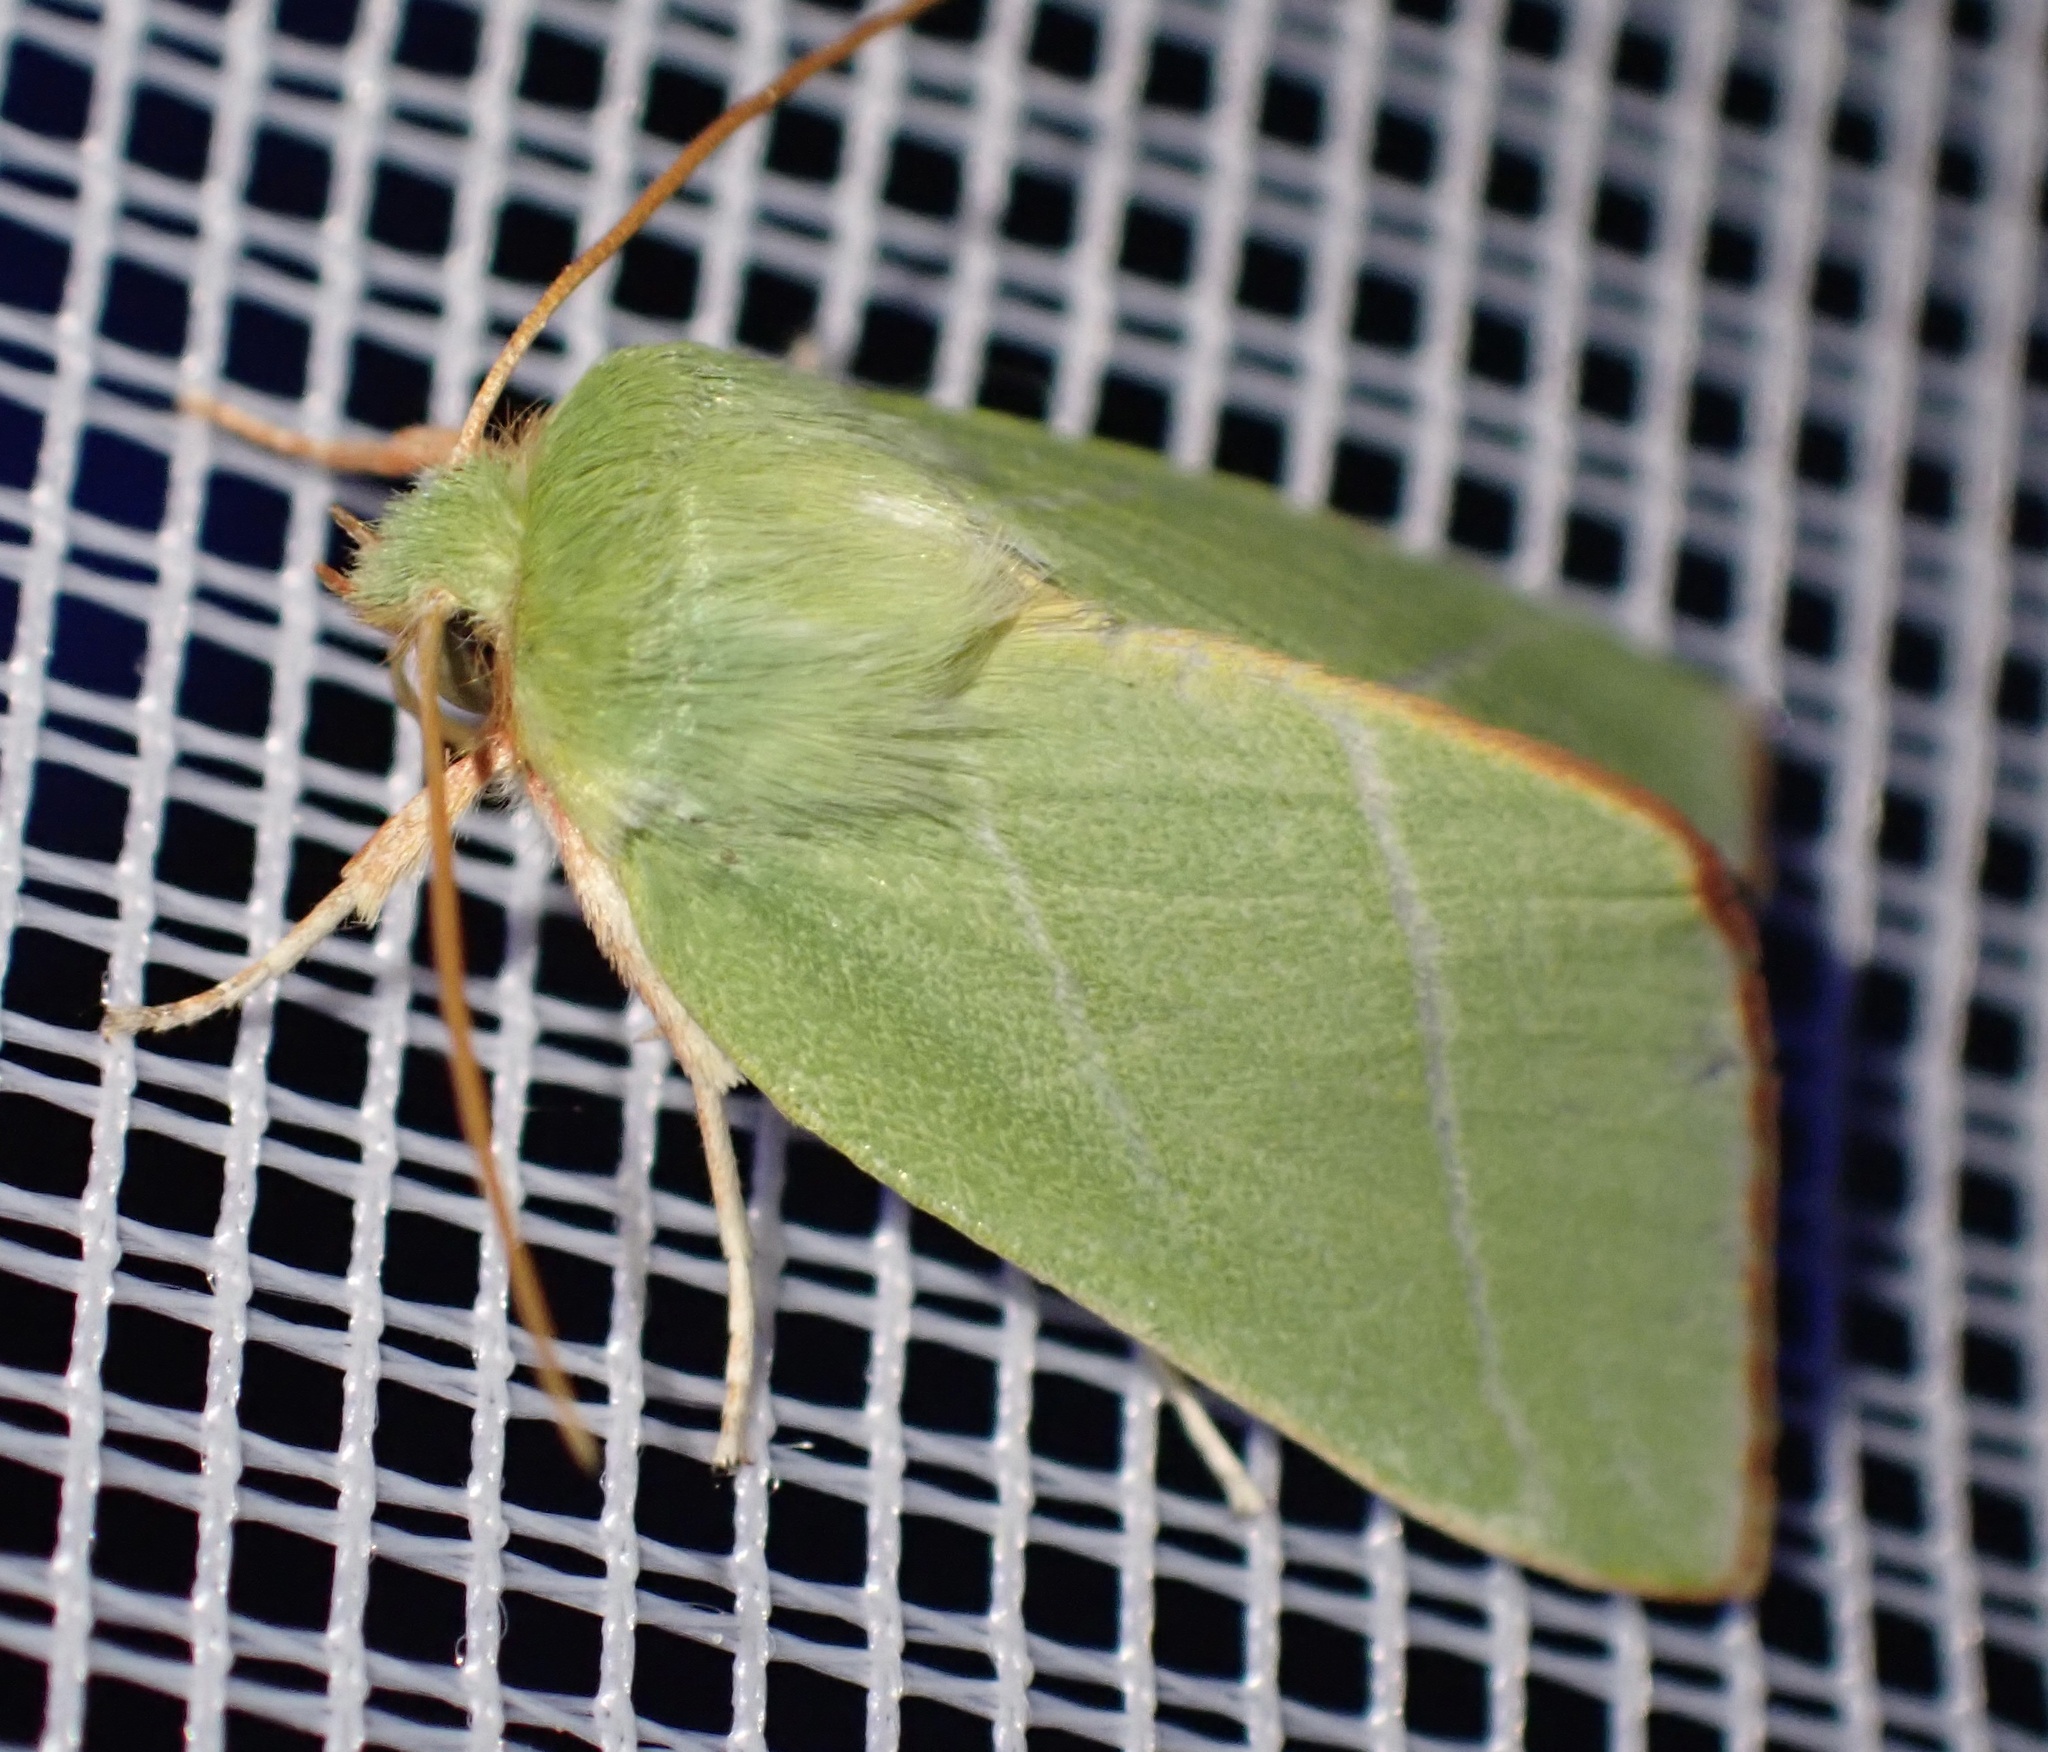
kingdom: Animalia
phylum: Arthropoda
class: Insecta
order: Lepidoptera
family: Nolidae
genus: Pseudoips
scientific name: Pseudoips prasinana
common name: Green silver-lines
